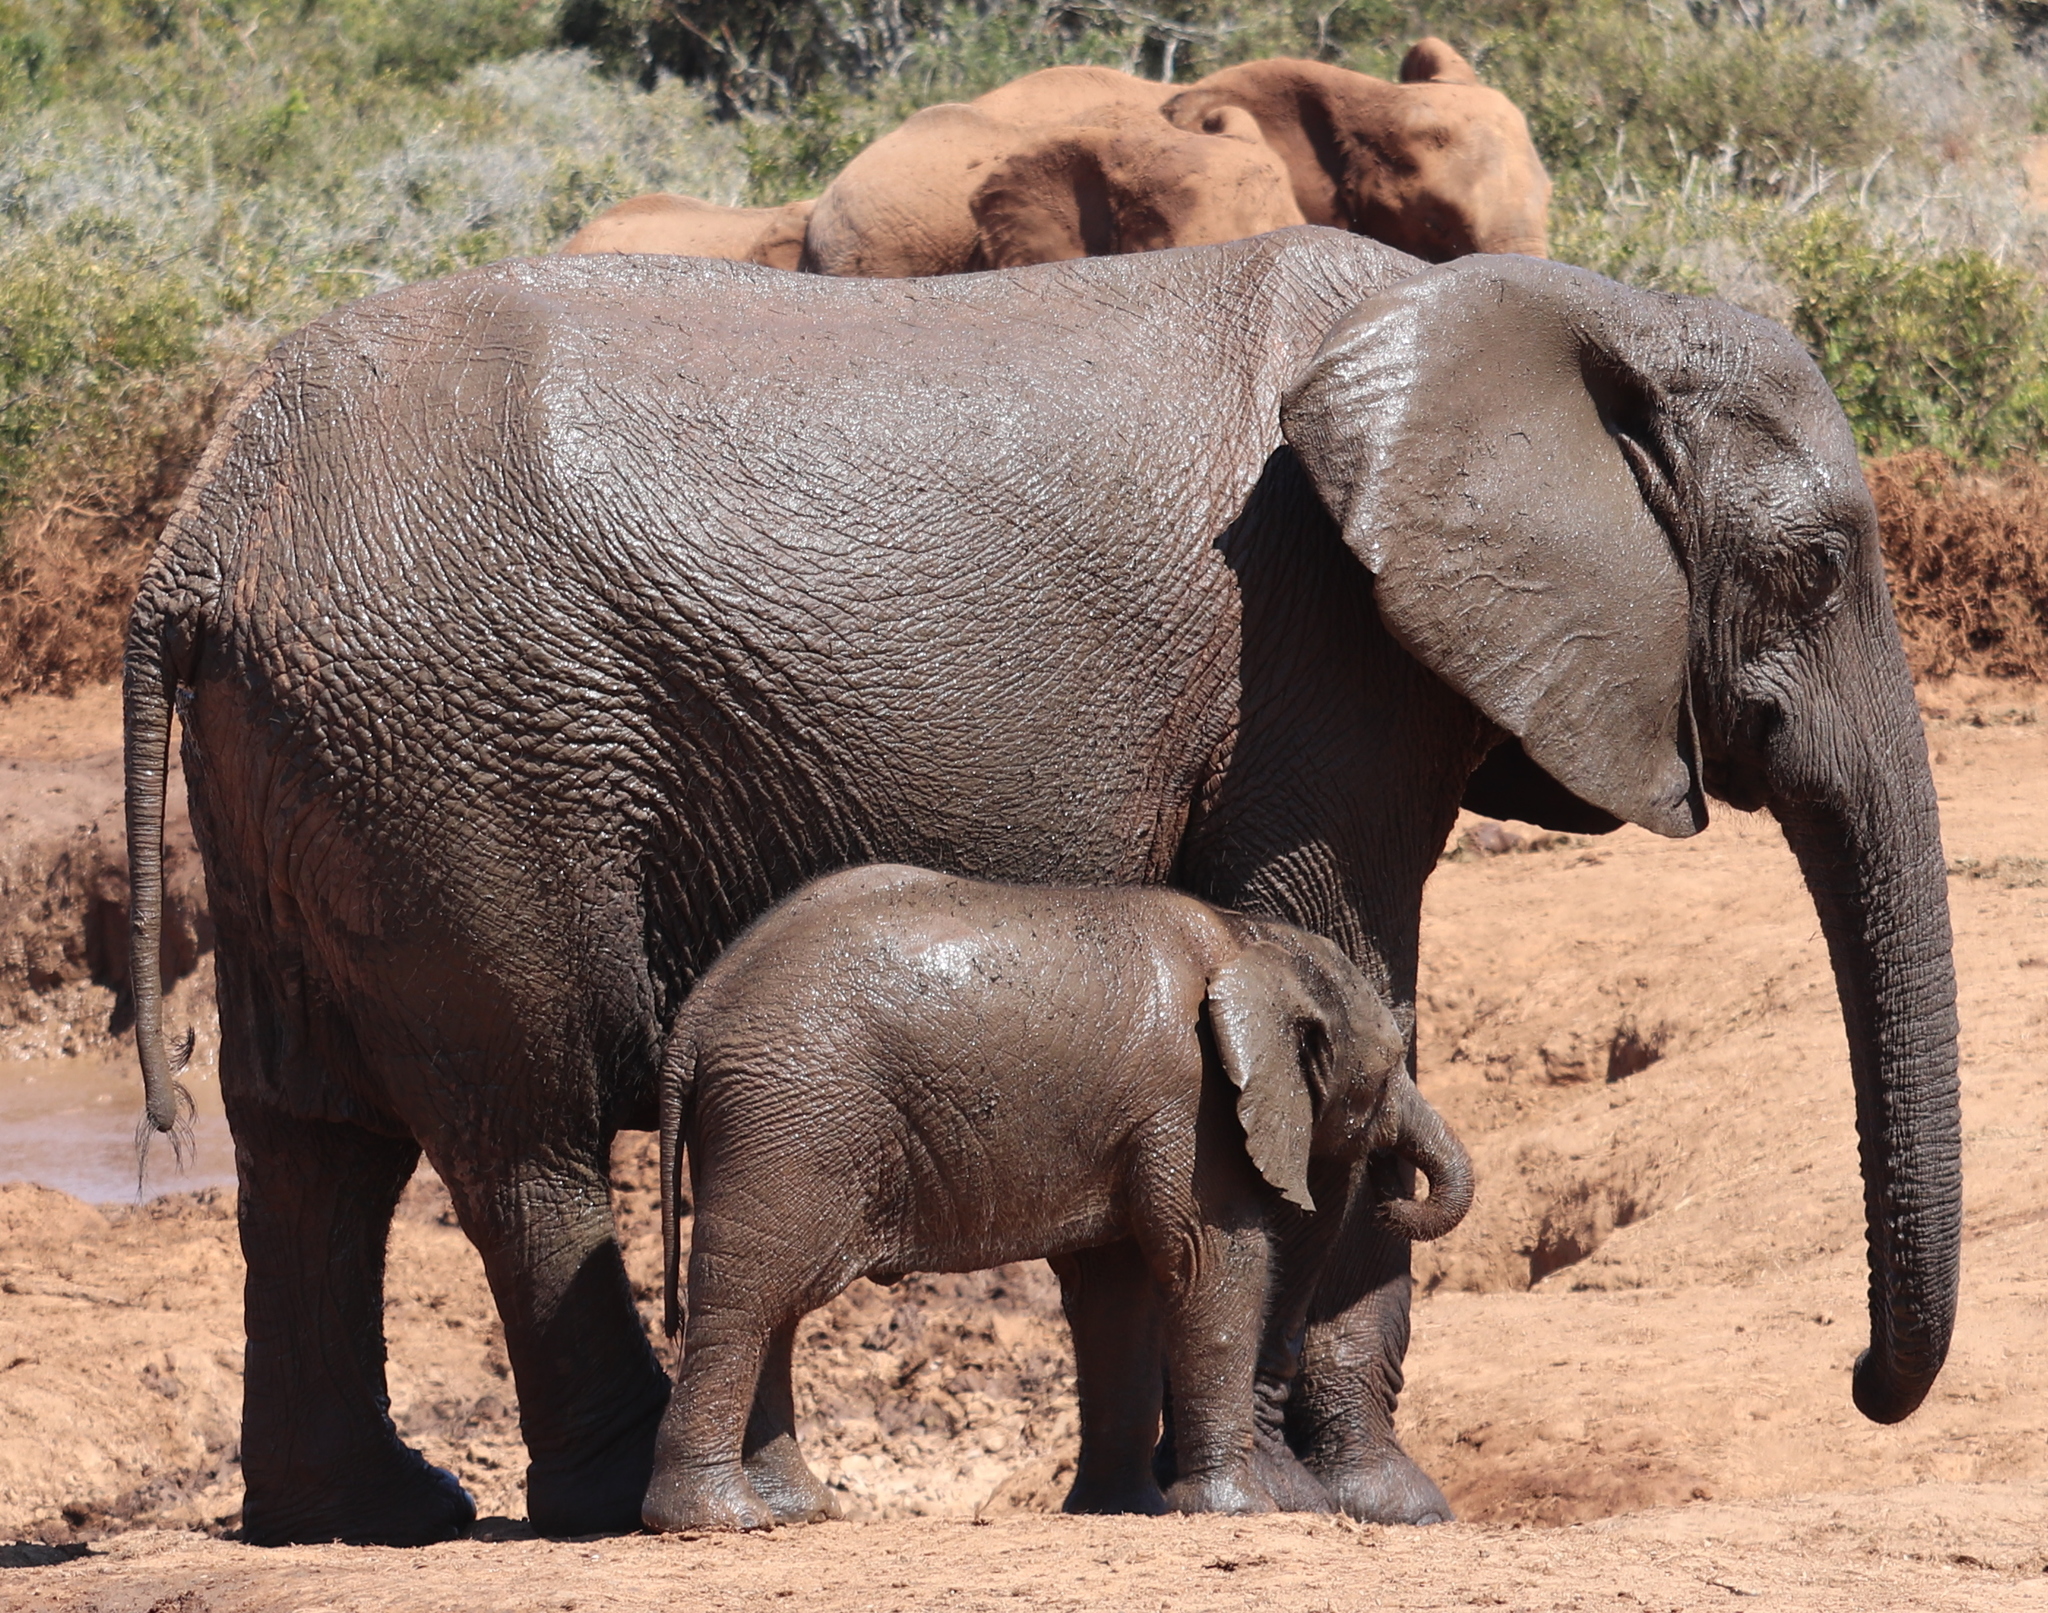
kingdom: Animalia
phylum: Chordata
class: Mammalia
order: Proboscidea
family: Elephantidae
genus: Loxodonta
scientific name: Loxodonta africana
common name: African elephant
